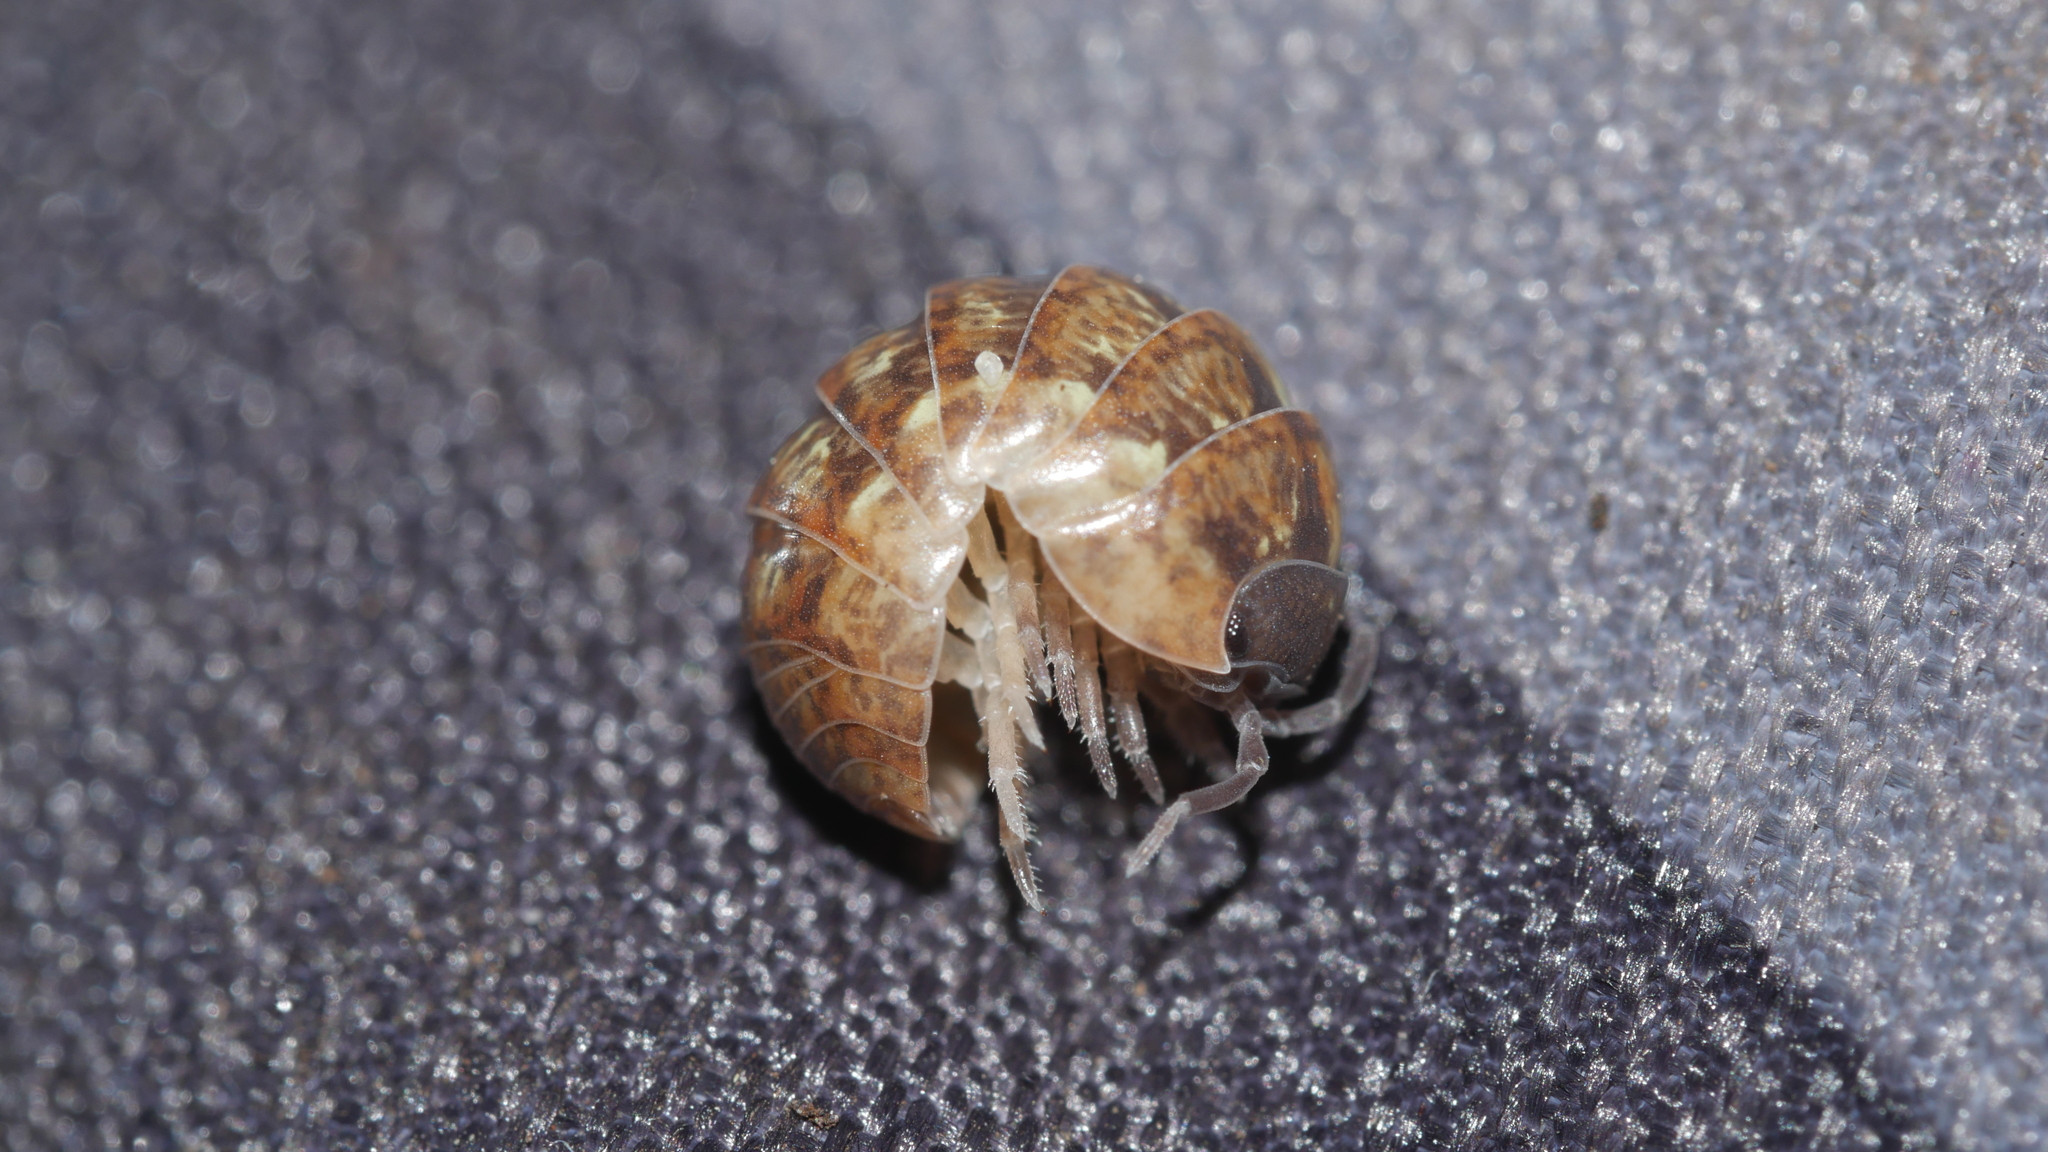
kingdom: Animalia
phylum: Arthropoda
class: Malacostraca
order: Isopoda
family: Armadillidiidae
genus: Armadillidium
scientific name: Armadillidium vulgare
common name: Common pill woodlouse
